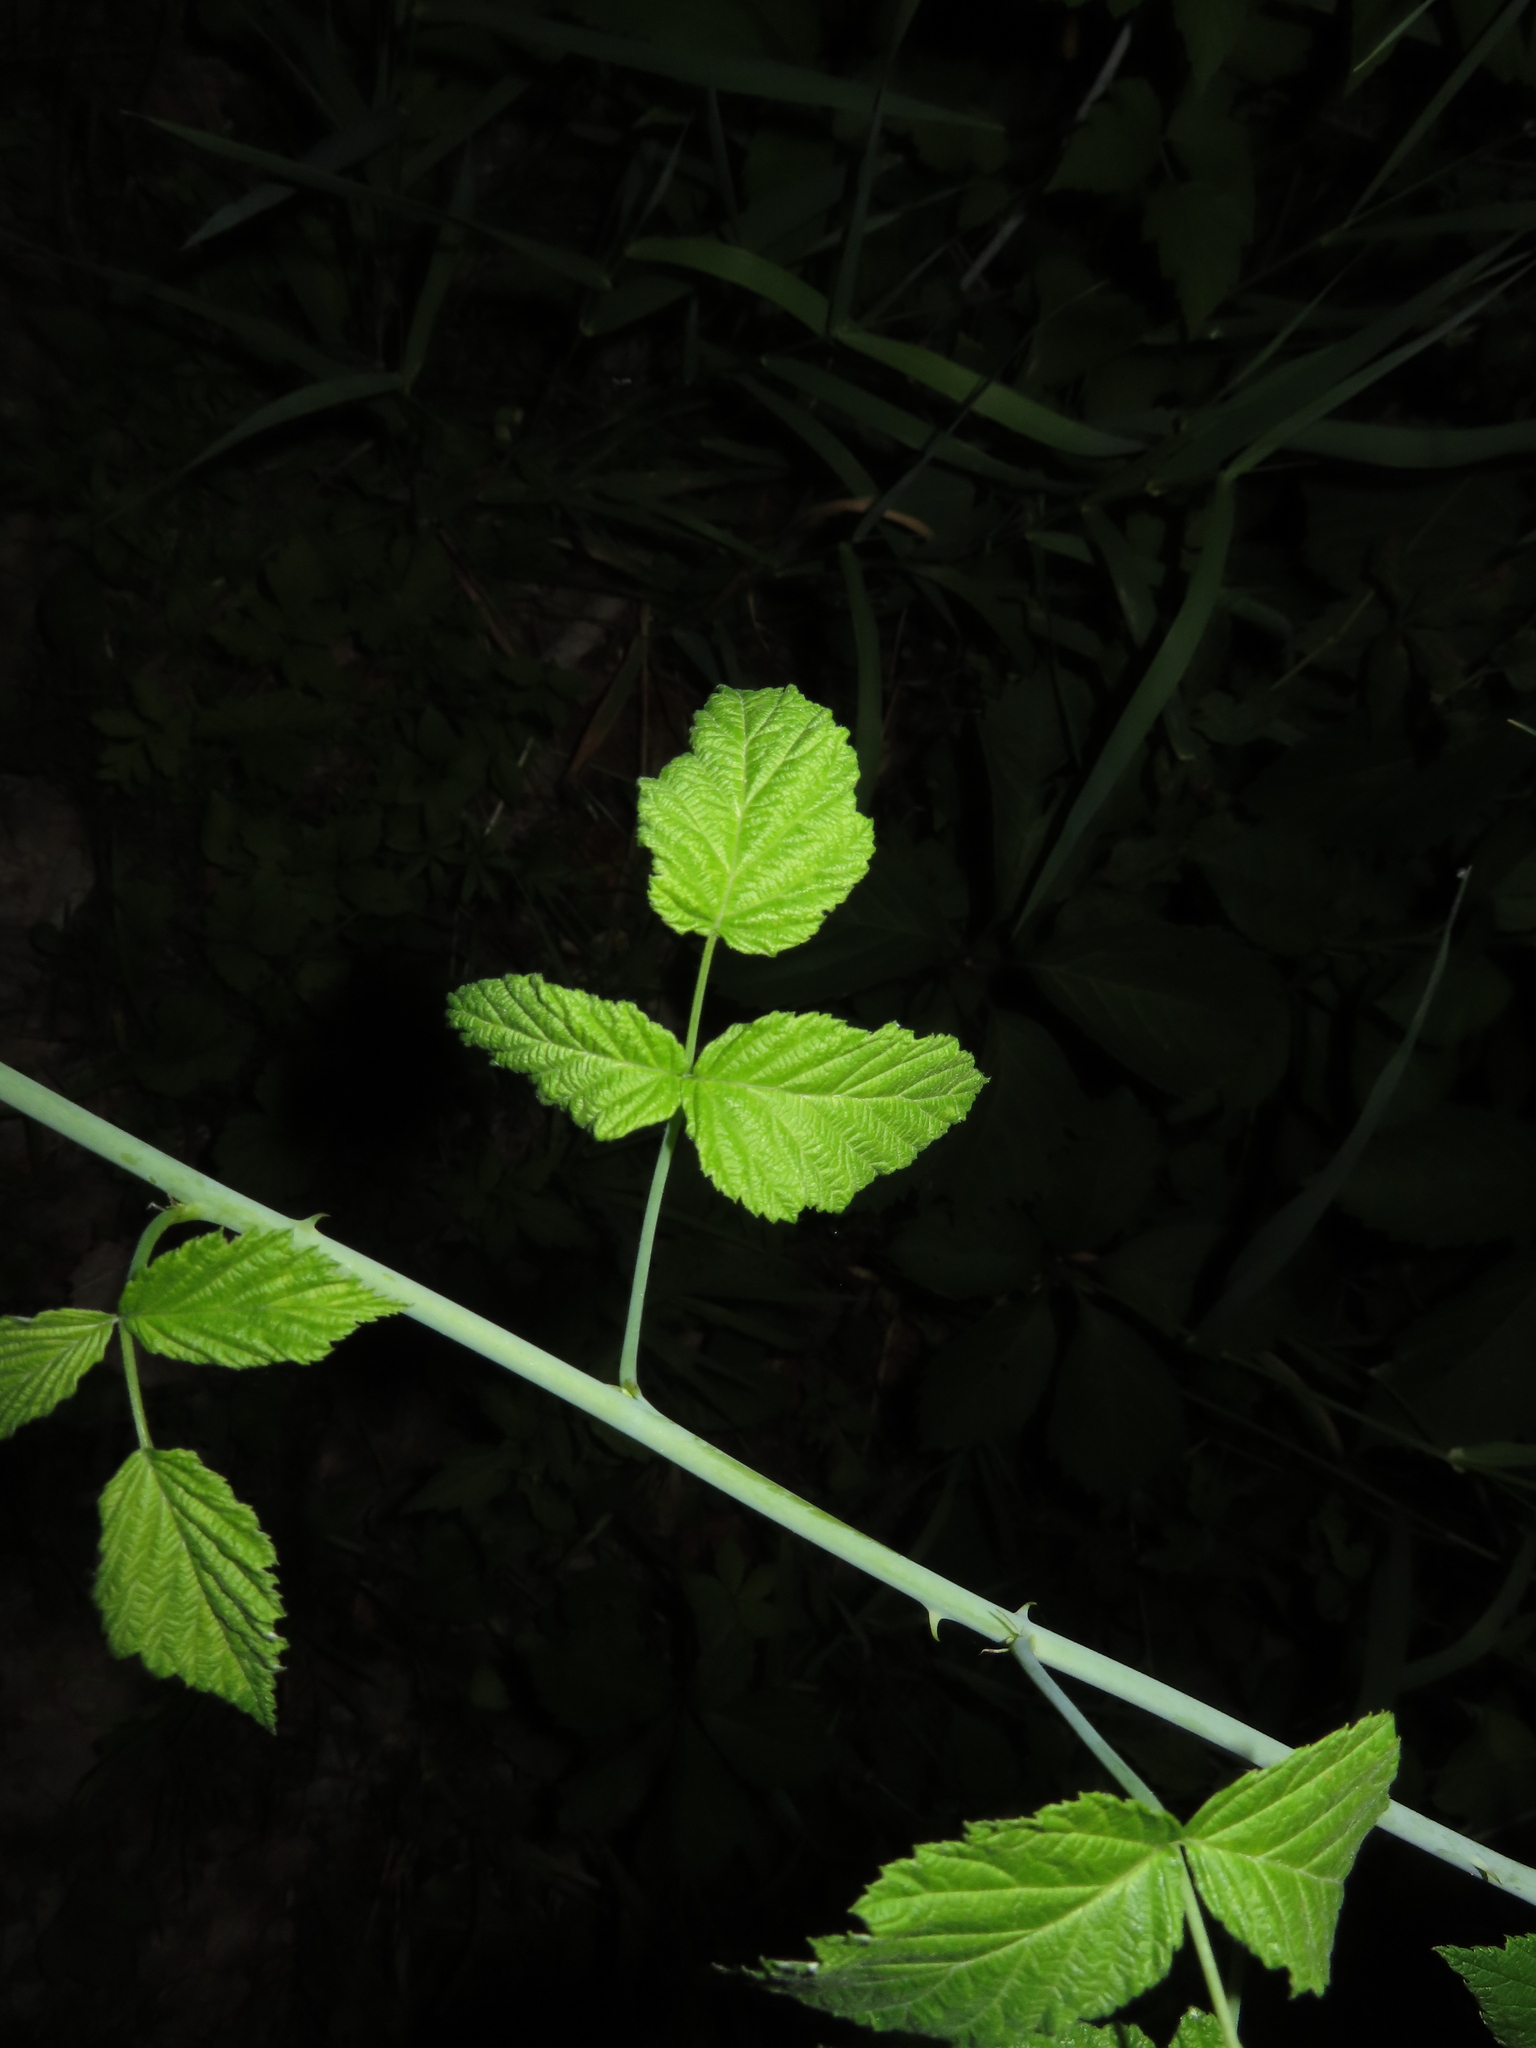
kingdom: Plantae
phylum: Tracheophyta
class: Magnoliopsida
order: Rosales
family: Rosaceae
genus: Rubus
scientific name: Rubus occidentalis
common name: Black raspberry
